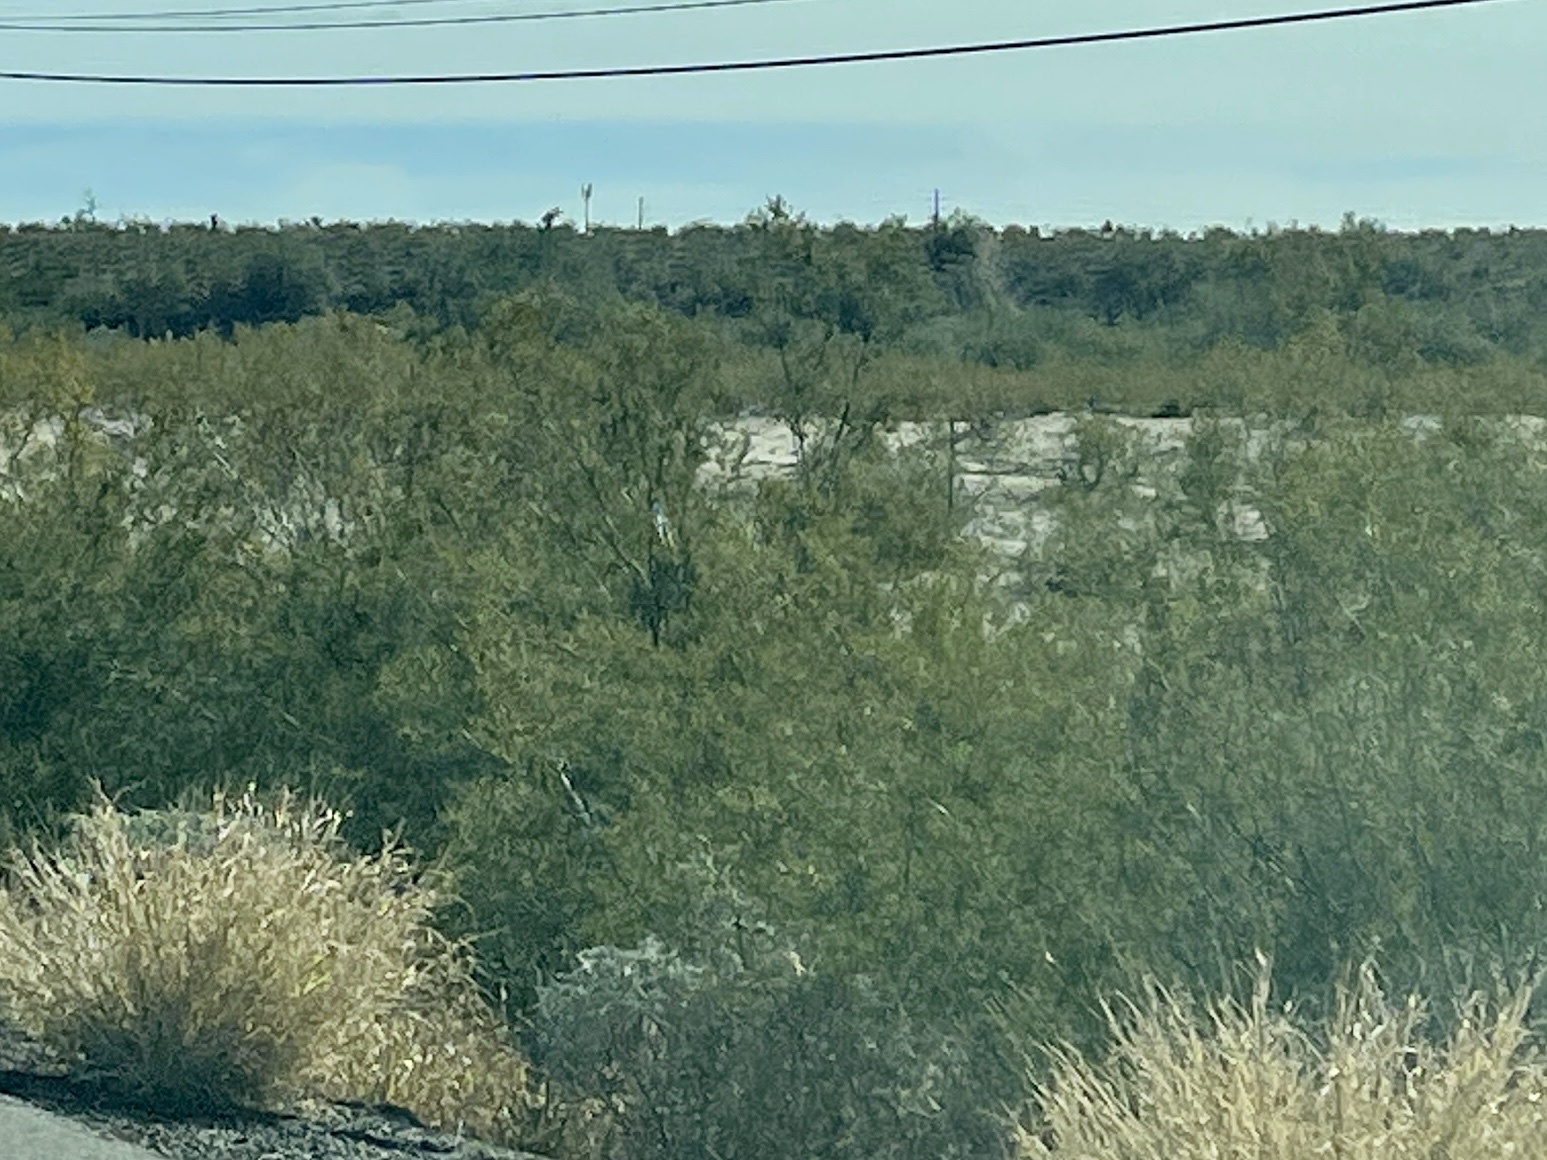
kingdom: Plantae
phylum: Tracheophyta
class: Magnoliopsida
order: Zygophyllales
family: Zygophyllaceae
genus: Larrea
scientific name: Larrea tridentata
